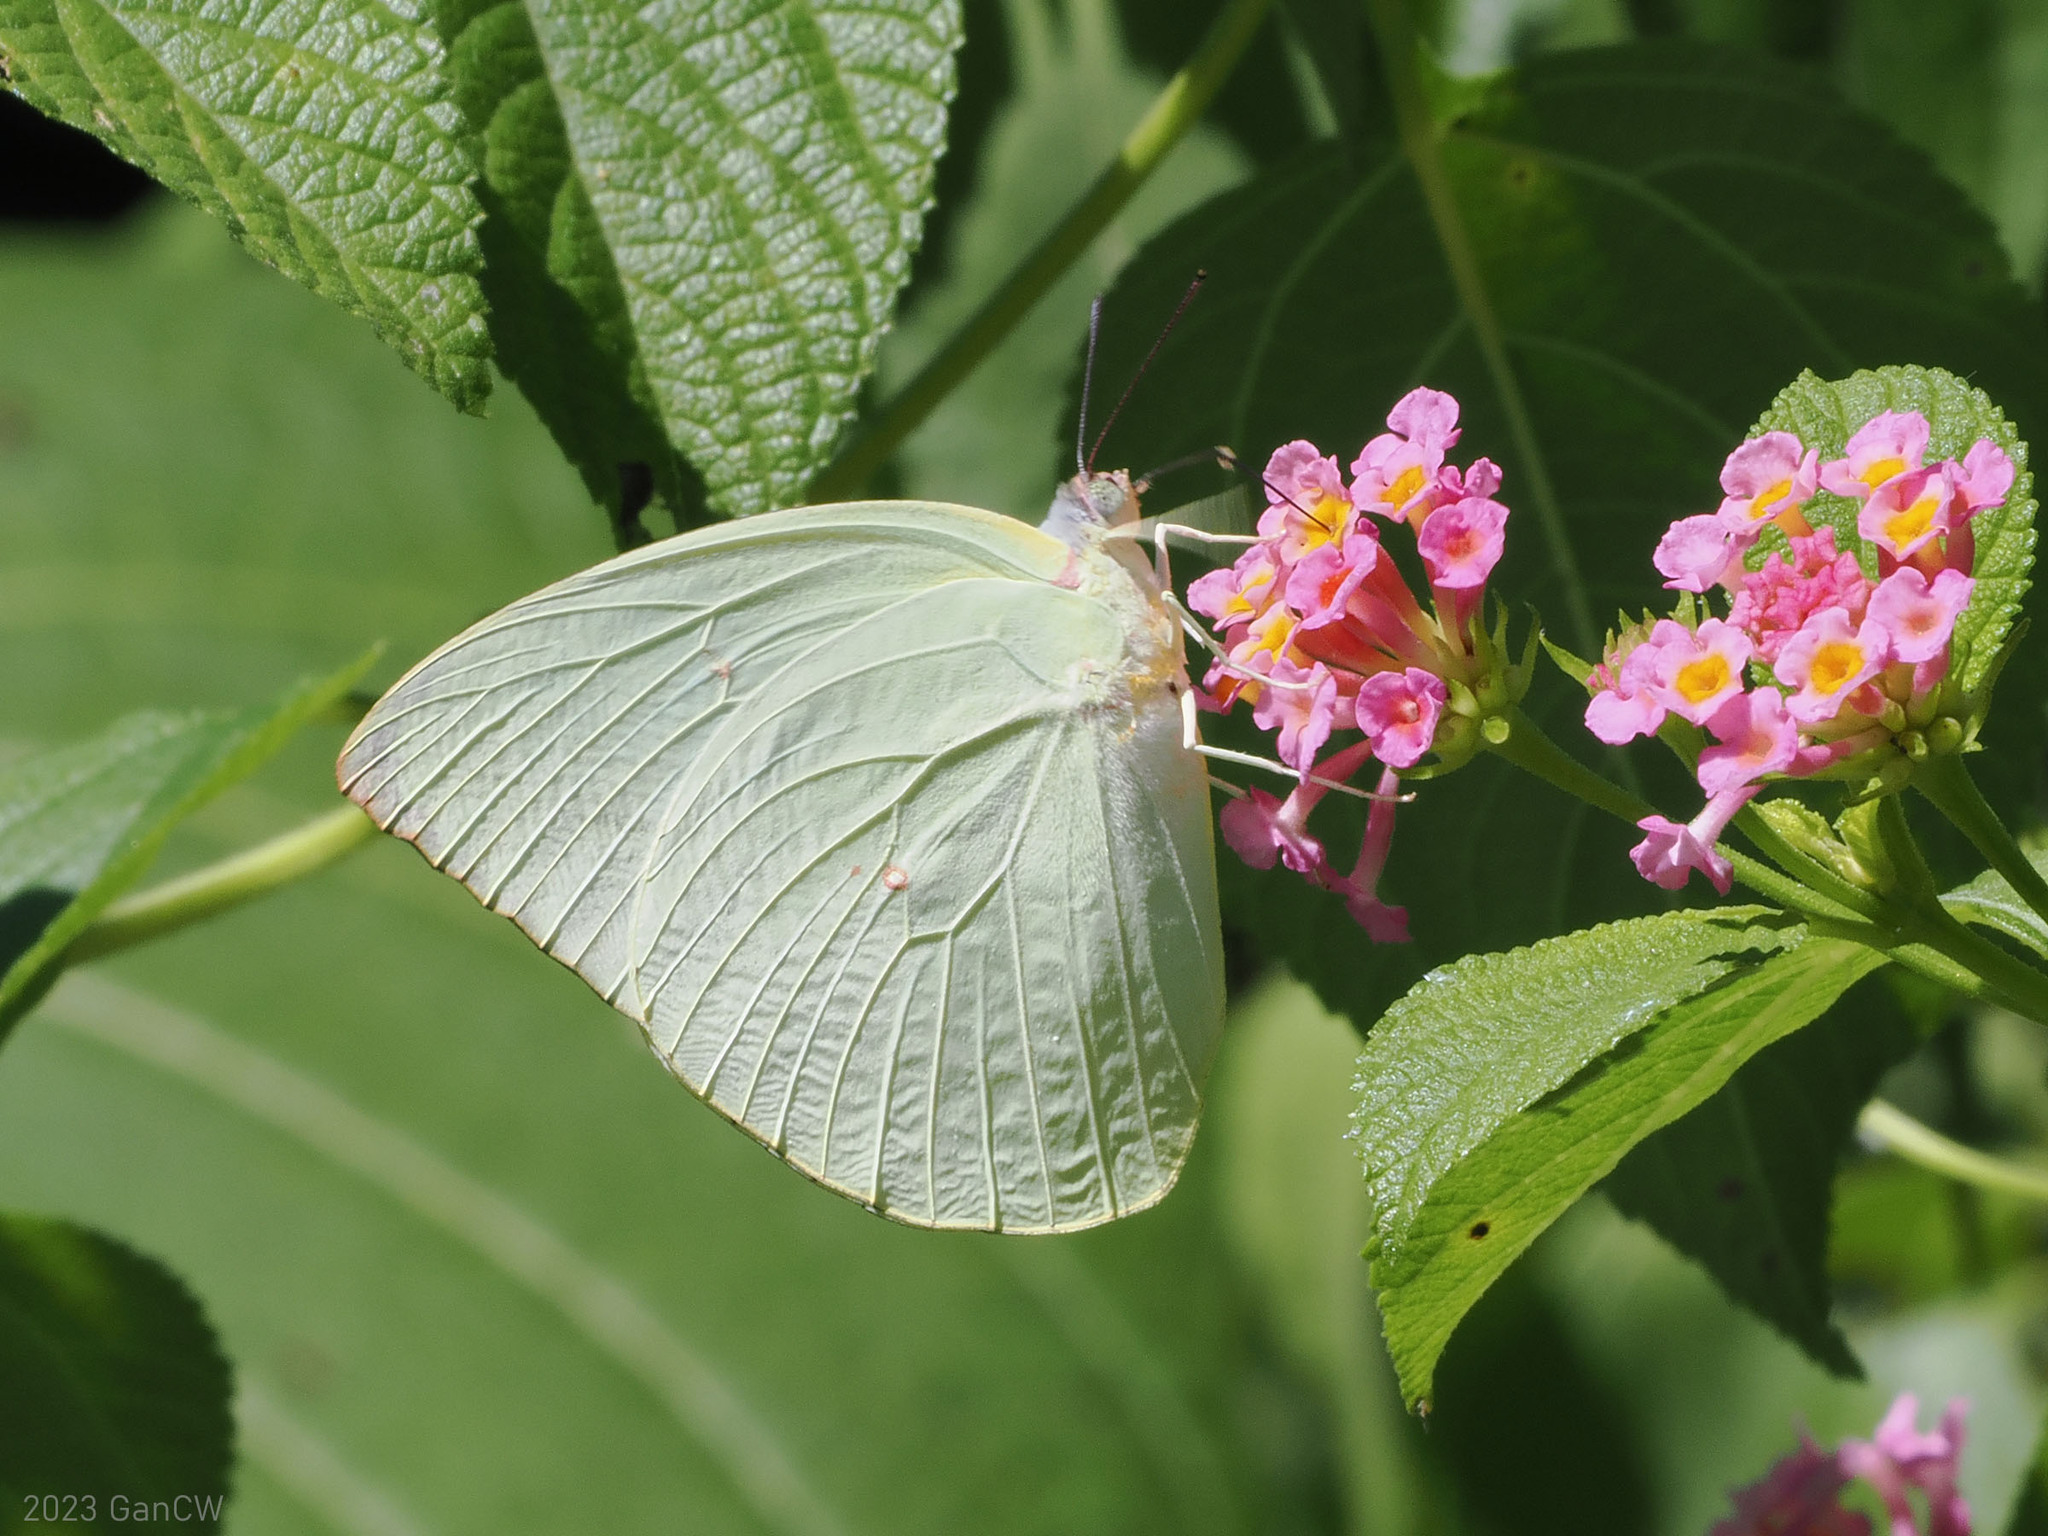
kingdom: Animalia
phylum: Arthropoda
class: Insecta
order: Lepidoptera
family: Pieridae
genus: Catopsilia
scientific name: Catopsilia pomona
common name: Common emigrant
